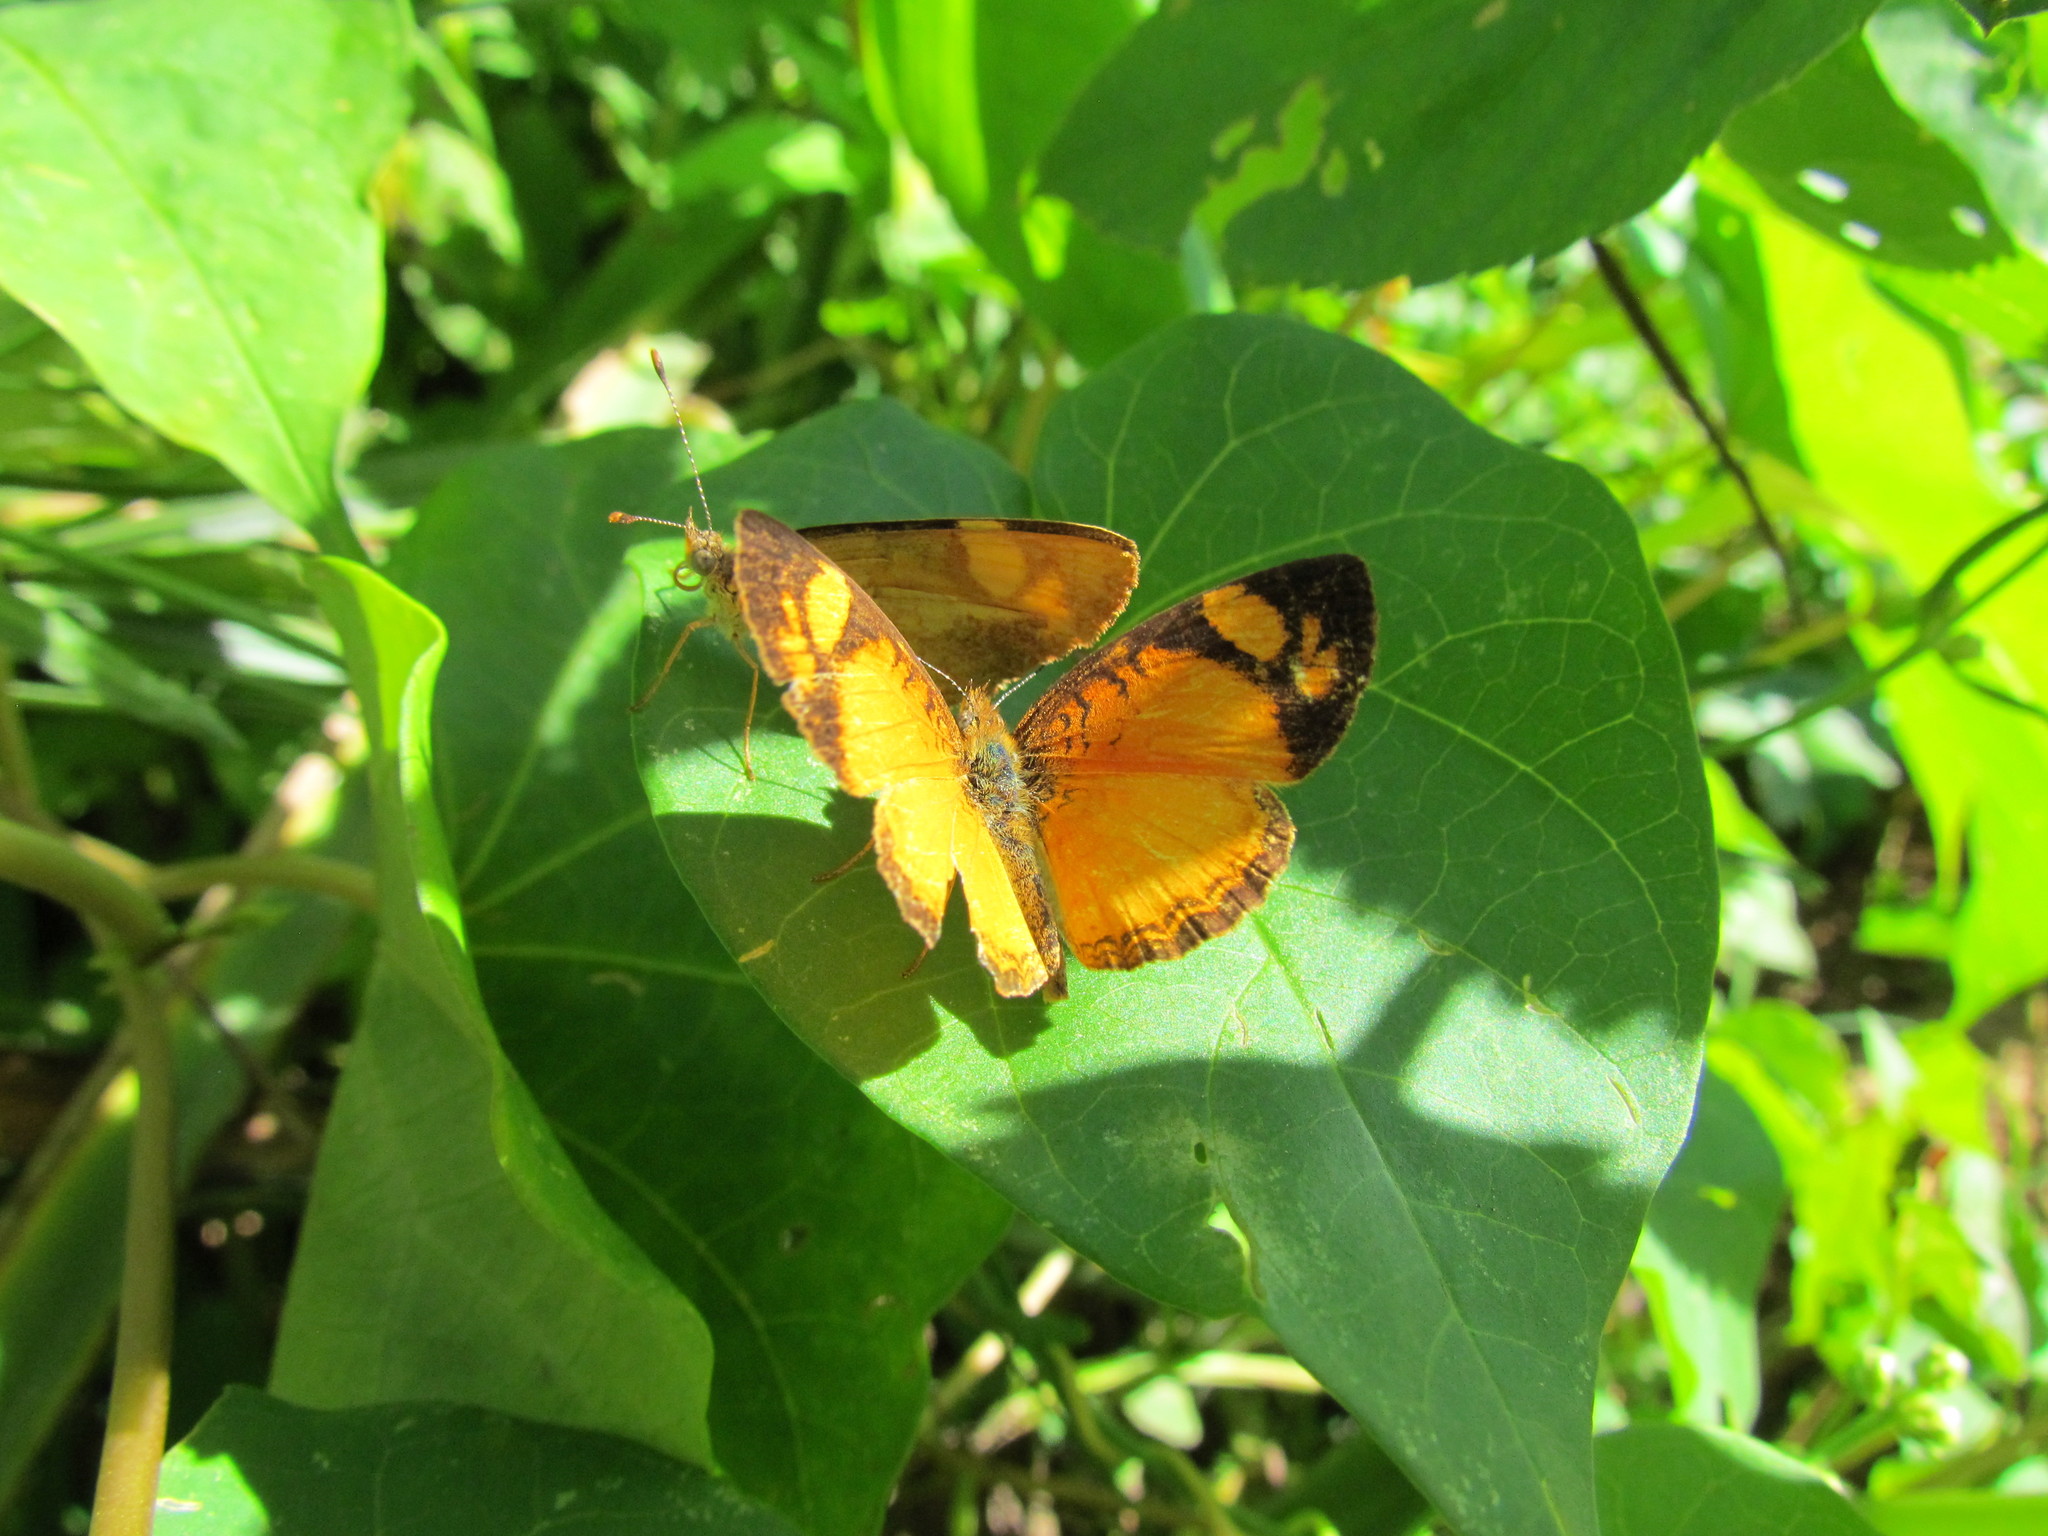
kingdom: Animalia
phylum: Arthropoda
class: Insecta
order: Lepidoptera
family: Nymphalidae
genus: Tegosa
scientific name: Tegosa claudina
